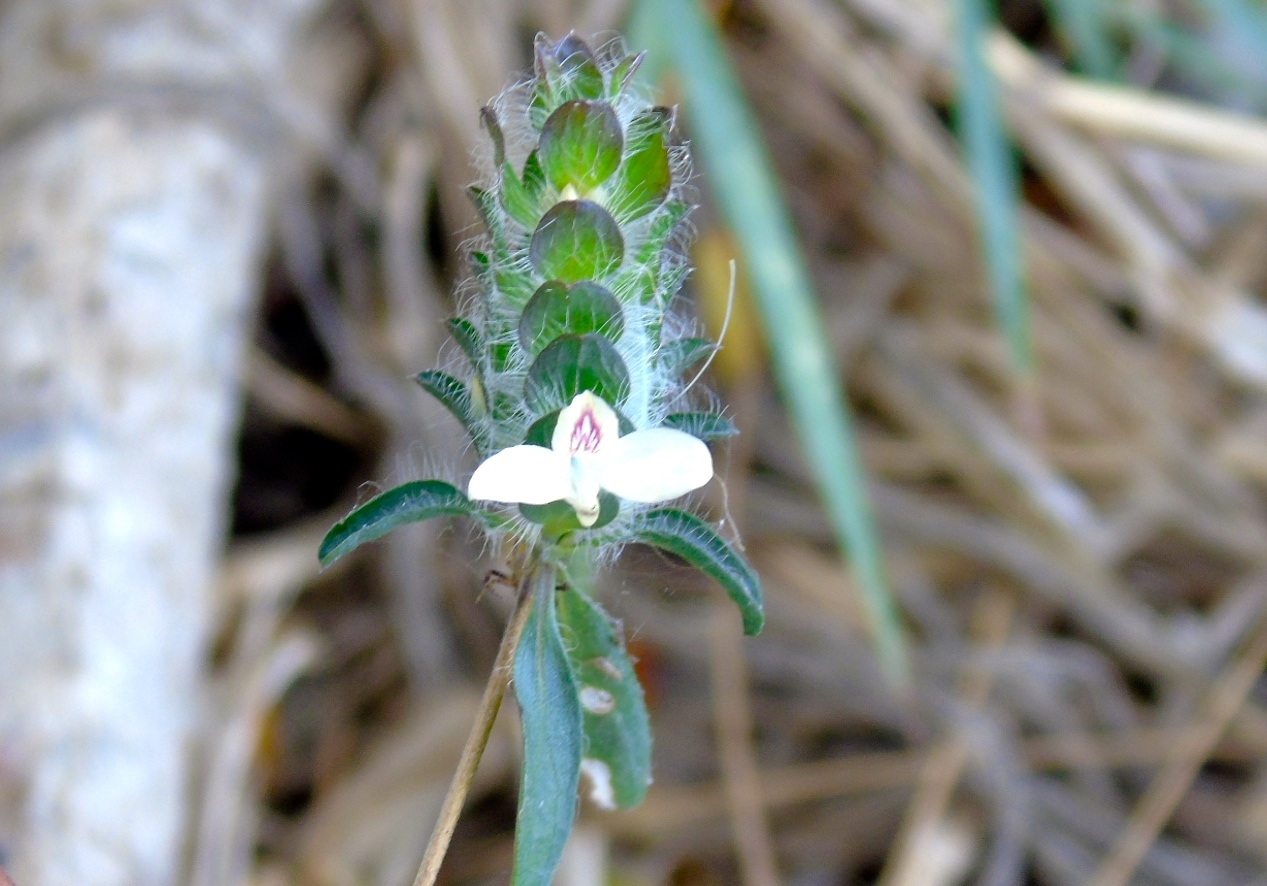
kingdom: Plantae
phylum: Tracheophyta
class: Magnoliopsida
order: Lamiales
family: Acanthaceae
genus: Tetramerium
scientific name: Tetramerium nervosum
